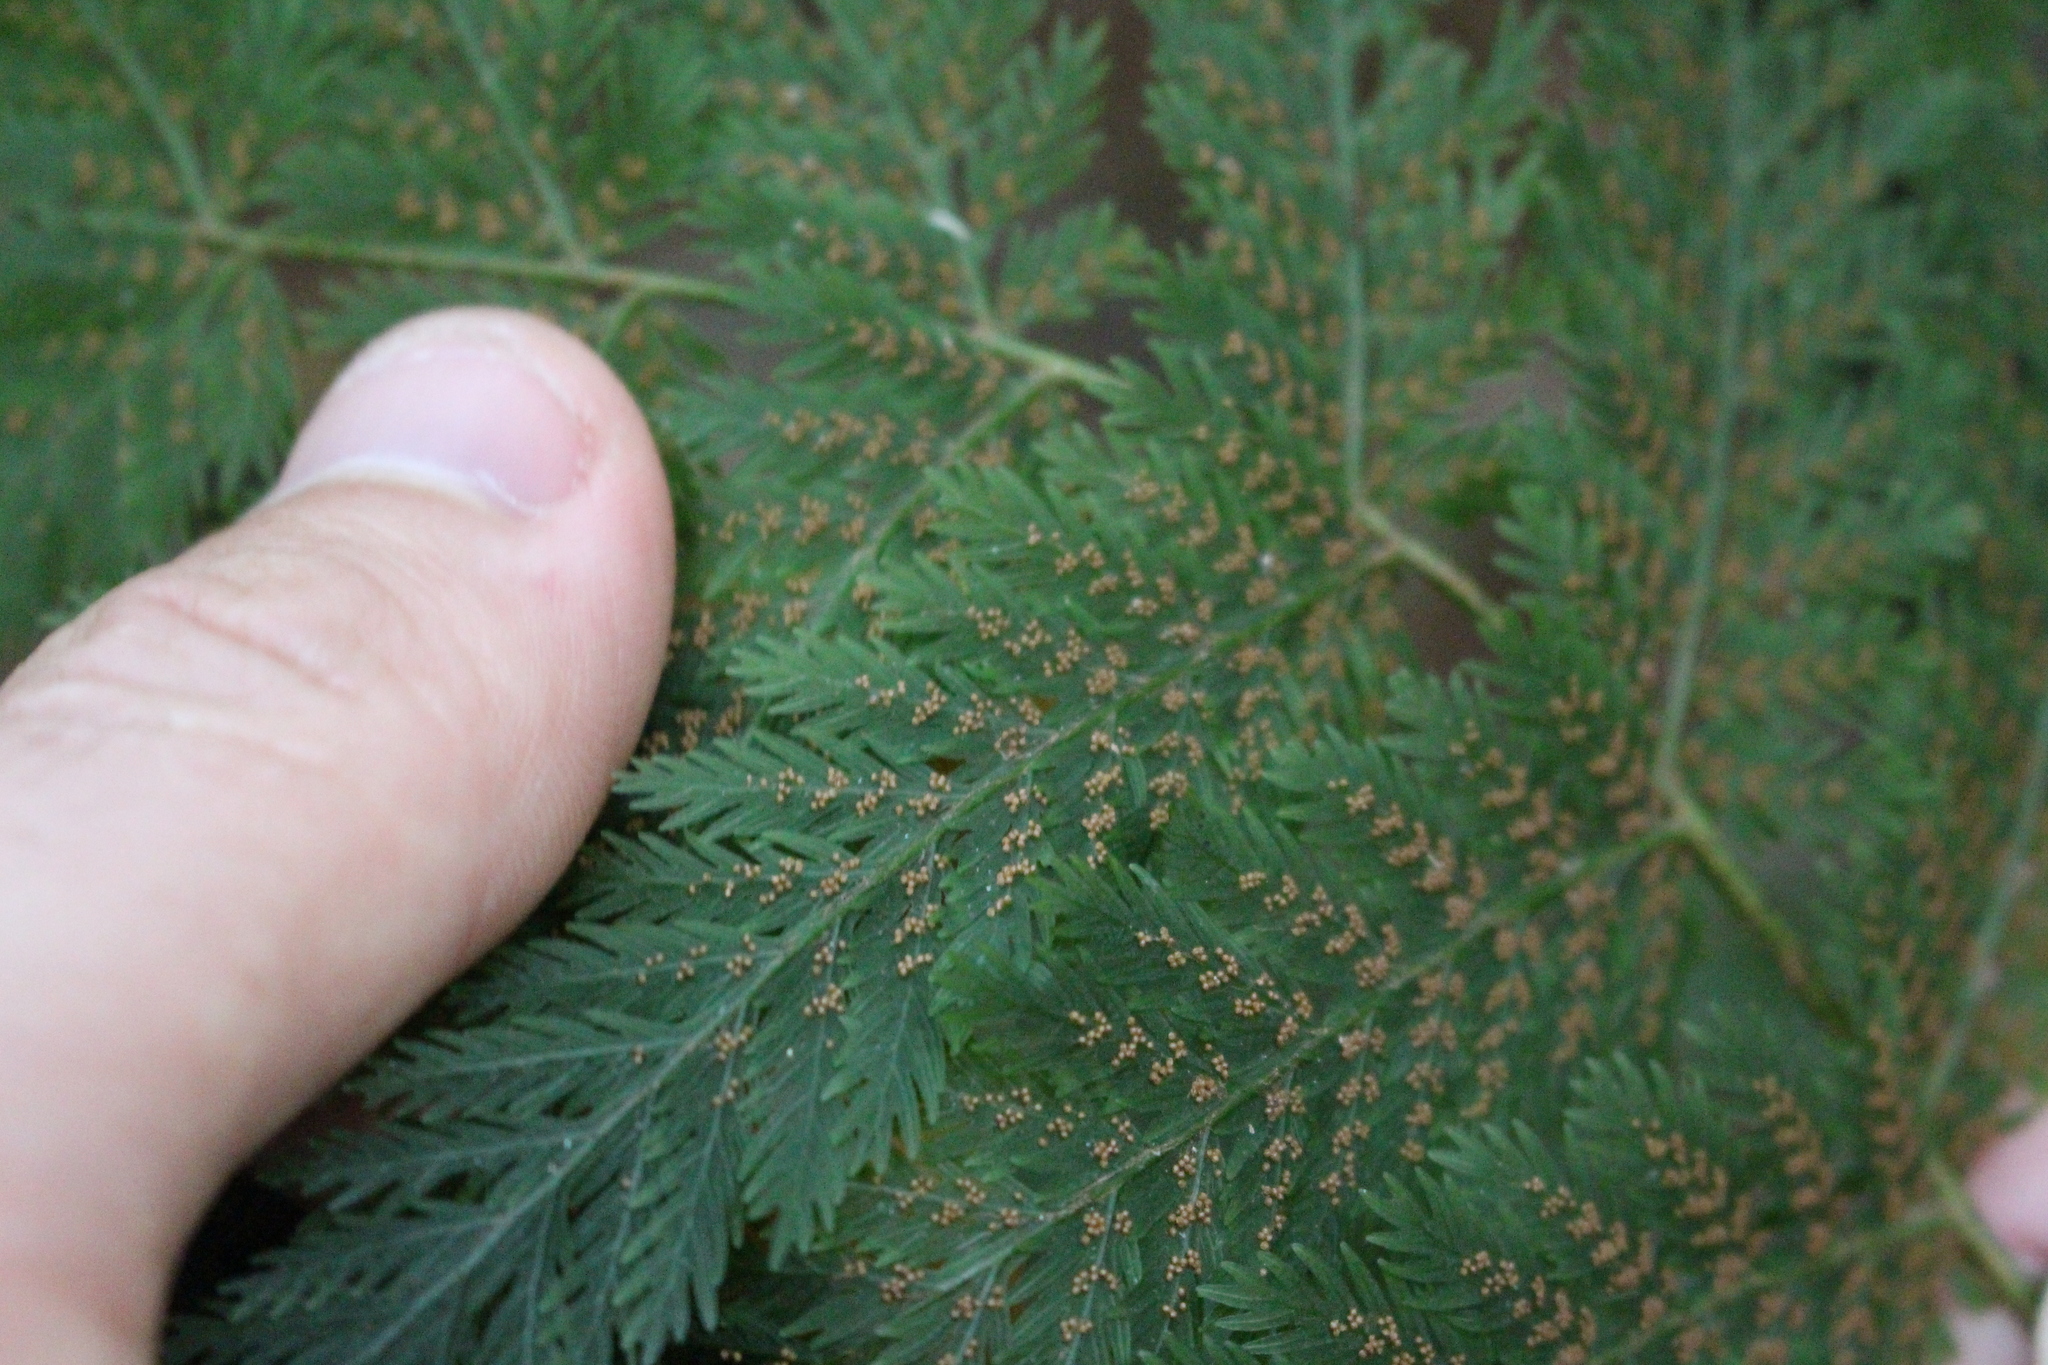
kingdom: Plantae
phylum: Tracheophyta
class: Polypodiopsida
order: Osmundales
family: Osmundaceae
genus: Leptopteris
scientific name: Leptopteris hymenophylloides
